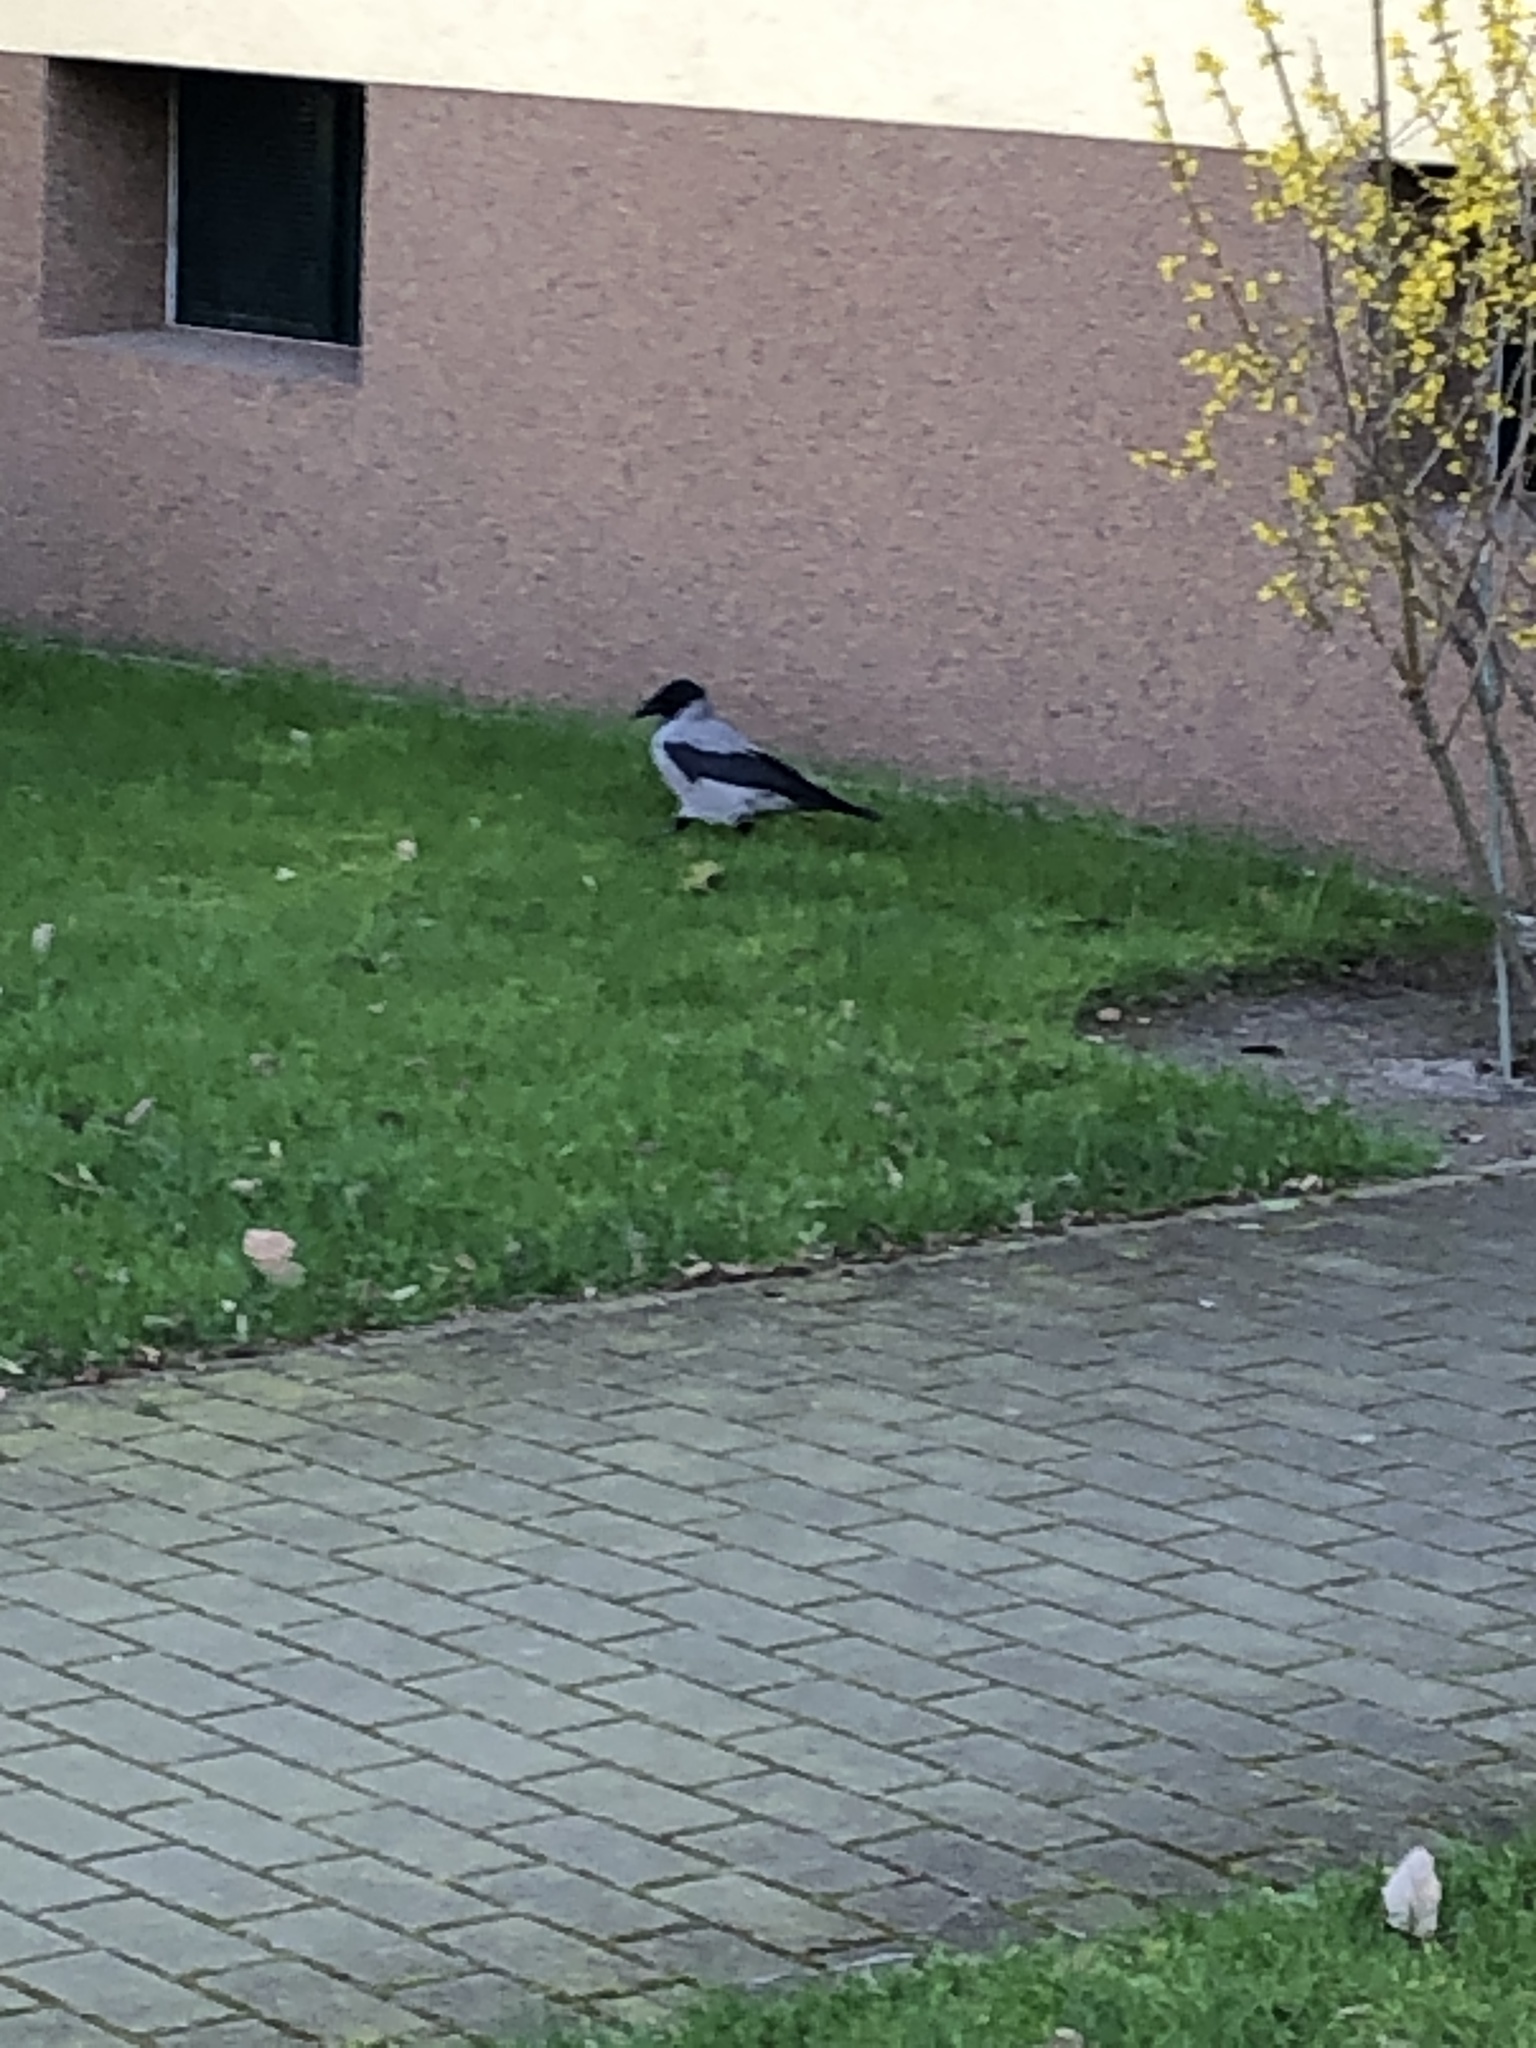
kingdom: Animalia
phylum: Chordata
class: Aves
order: Passeriformes
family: Corvidae
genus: Corvus
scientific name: Corvus cornix
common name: Hooded crow
